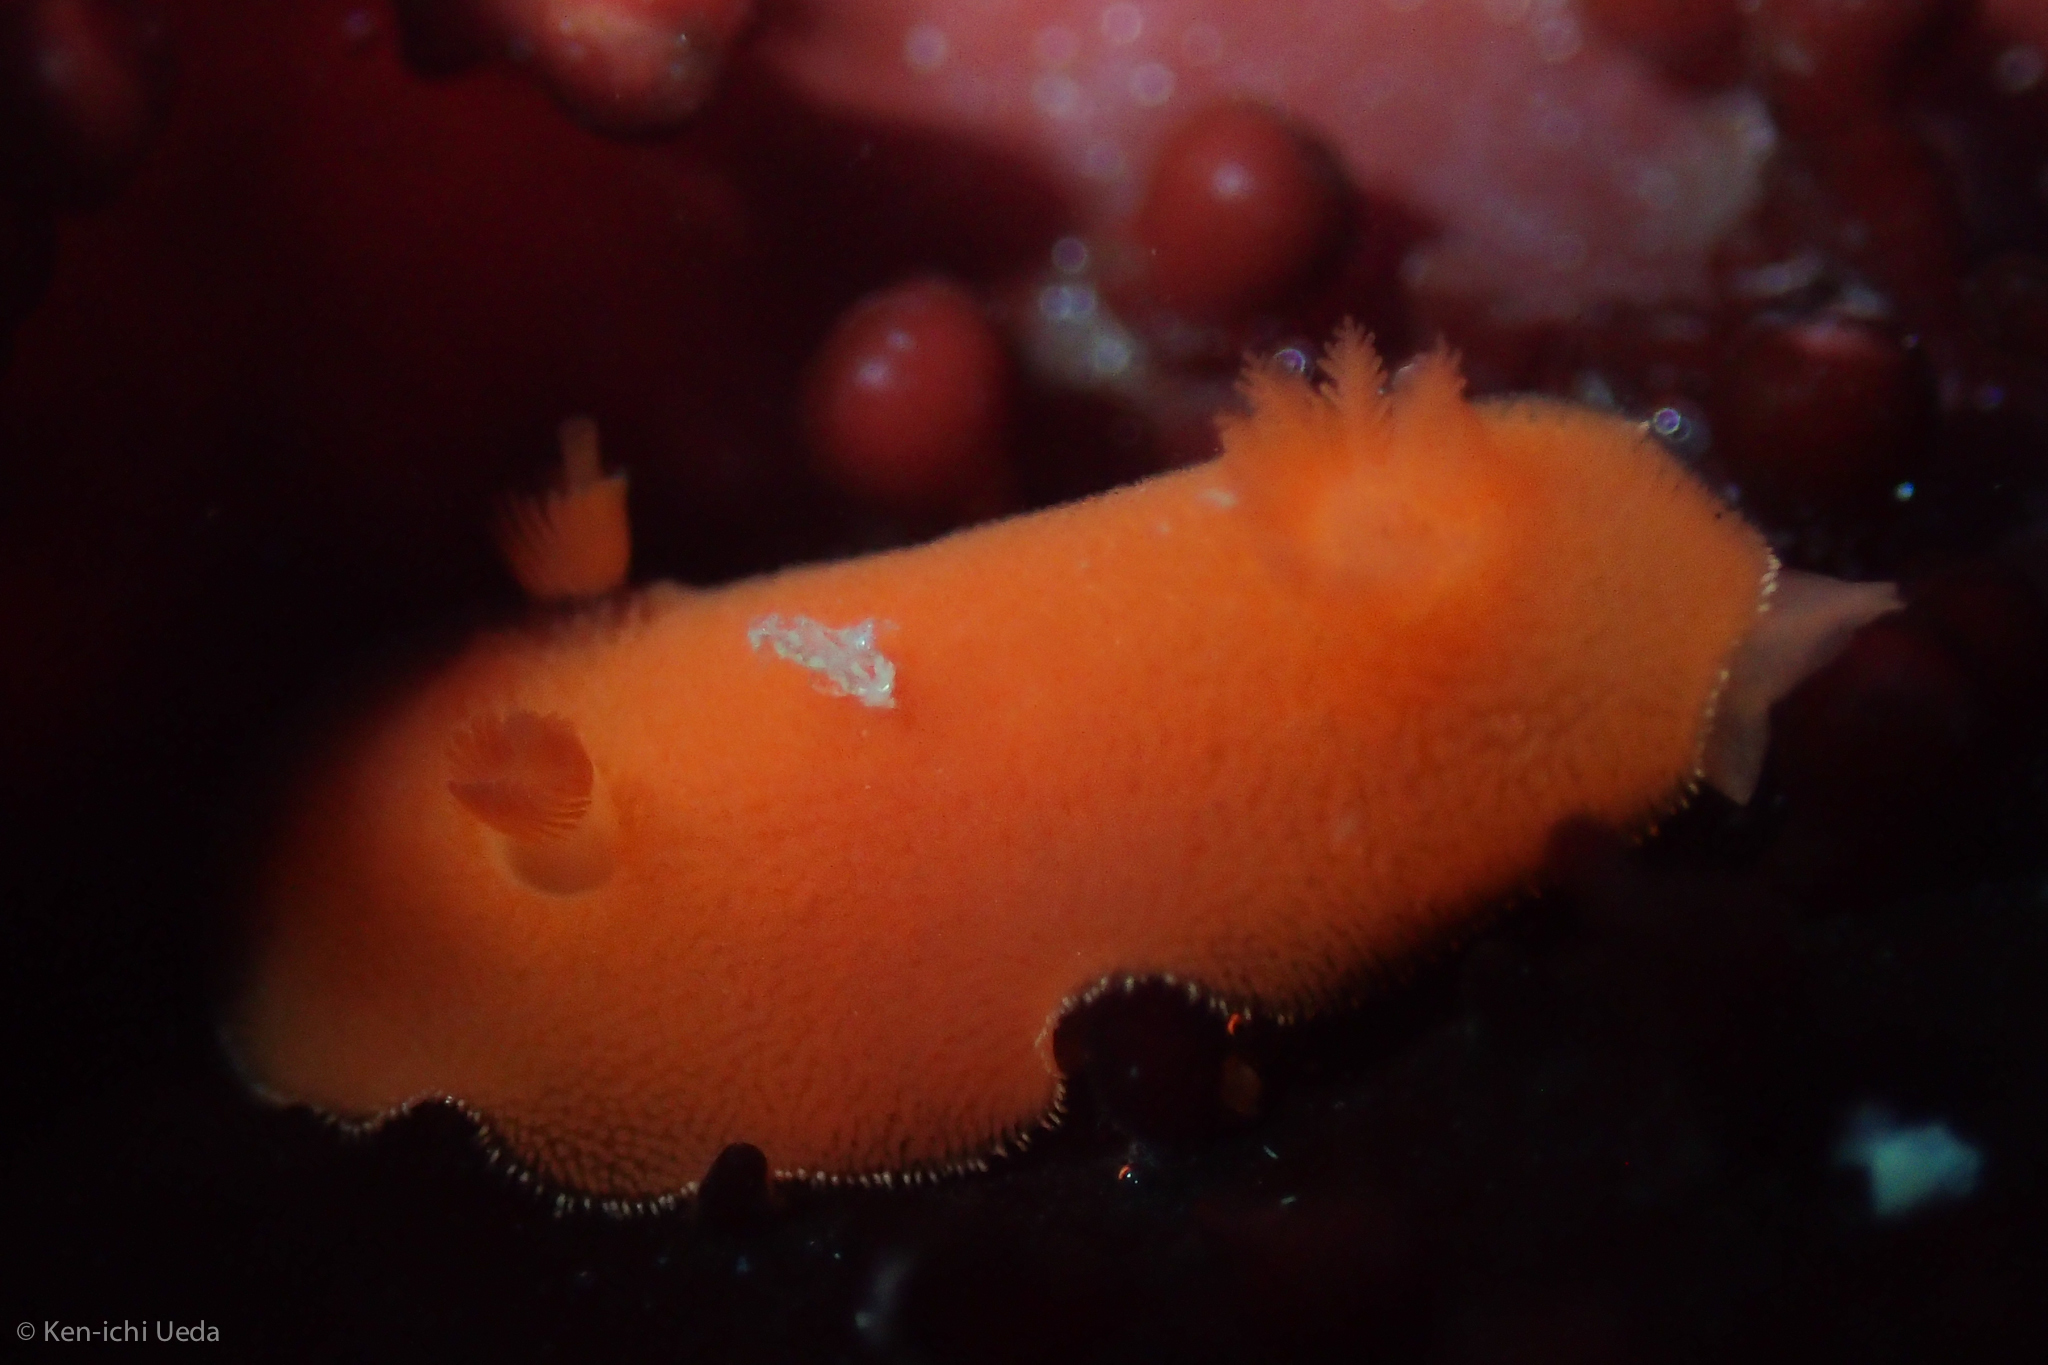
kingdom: Animalia
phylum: Mollusca
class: Gastropoda
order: Nudibranchia
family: Discodorididae
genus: Rostanga
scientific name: Rostanga pulchra
